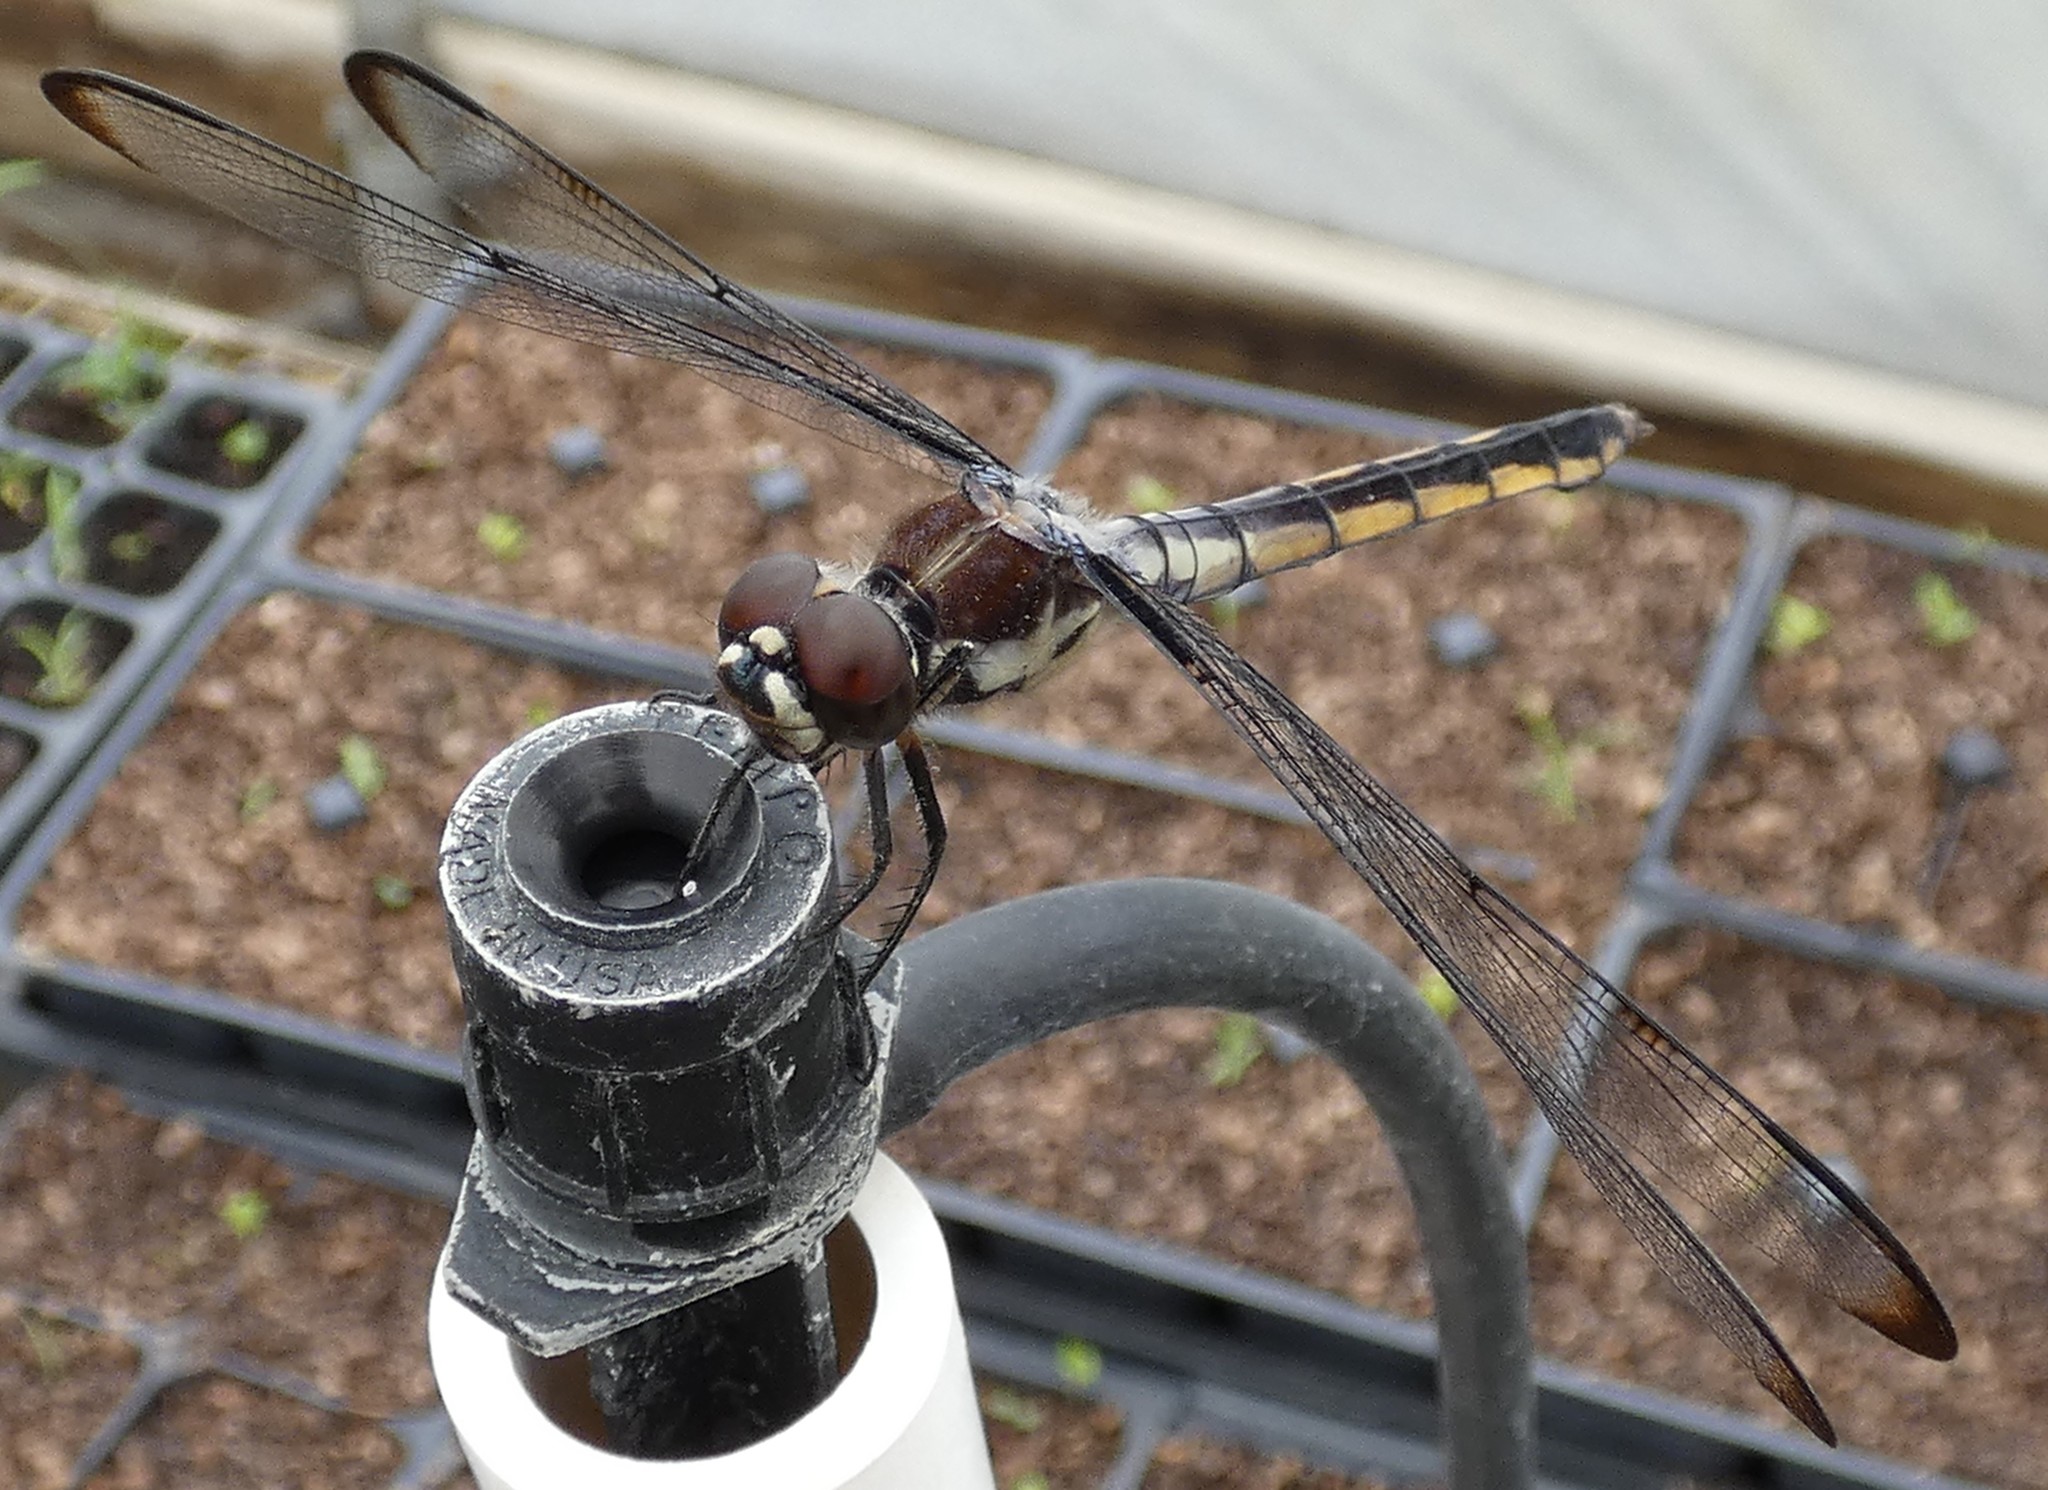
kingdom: Animalia
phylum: Arthropoda
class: Insecta
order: Odonata
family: Libellulidae
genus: Libellula
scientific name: Libellula axilena
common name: Bar-winged skimmer
